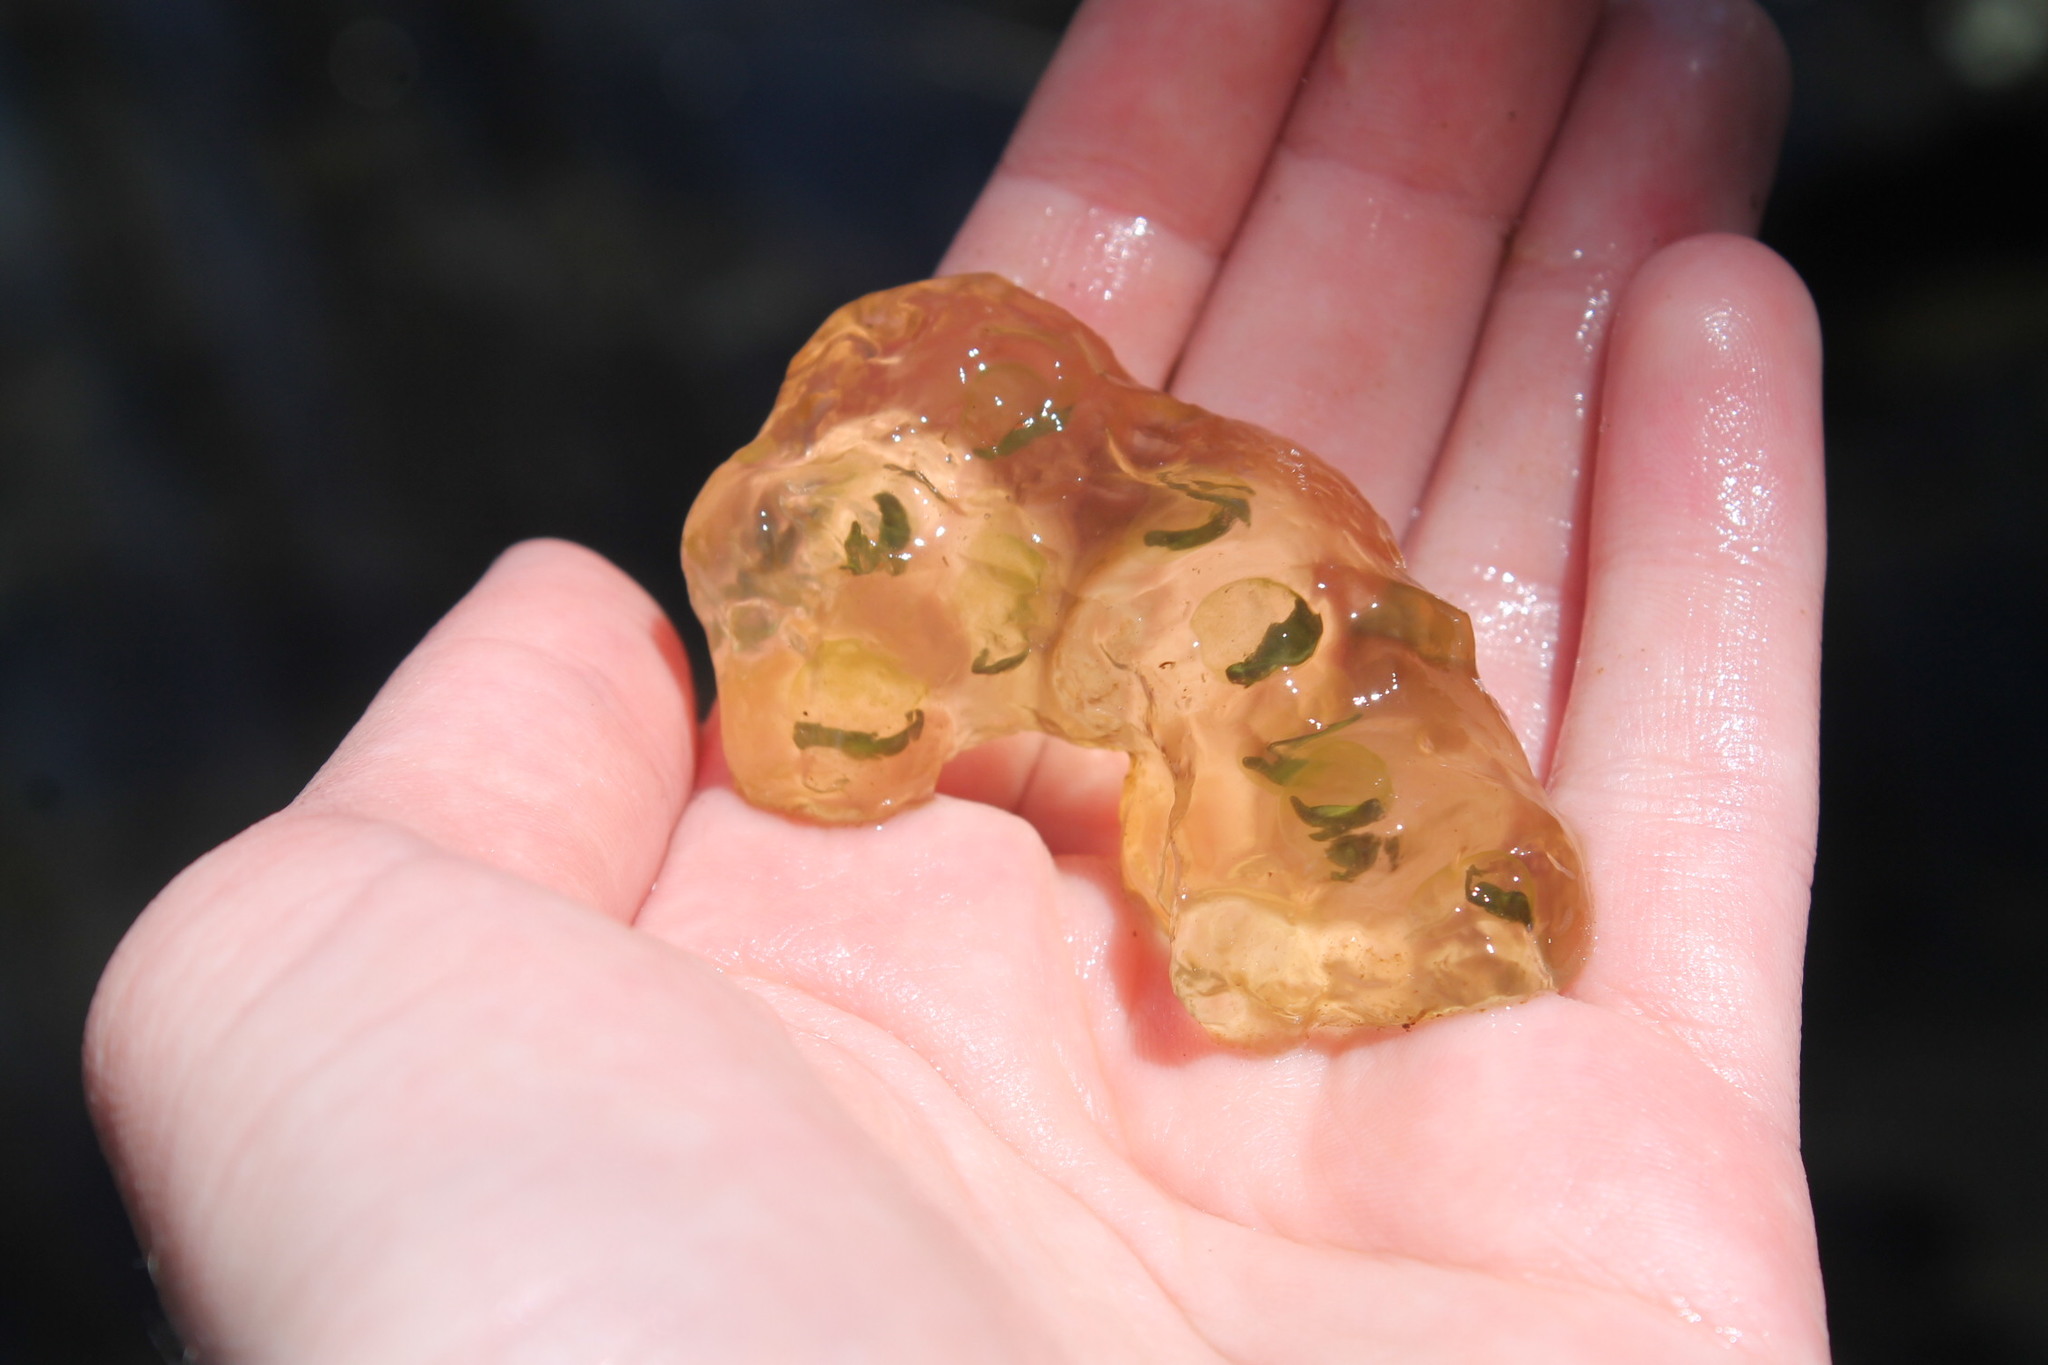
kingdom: Animalia
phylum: Chordata
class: Amphibia
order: Caudata
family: Ambystomatidae
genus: Ambystoma
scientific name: Ambystoma maculatum
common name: Spotted salamander
